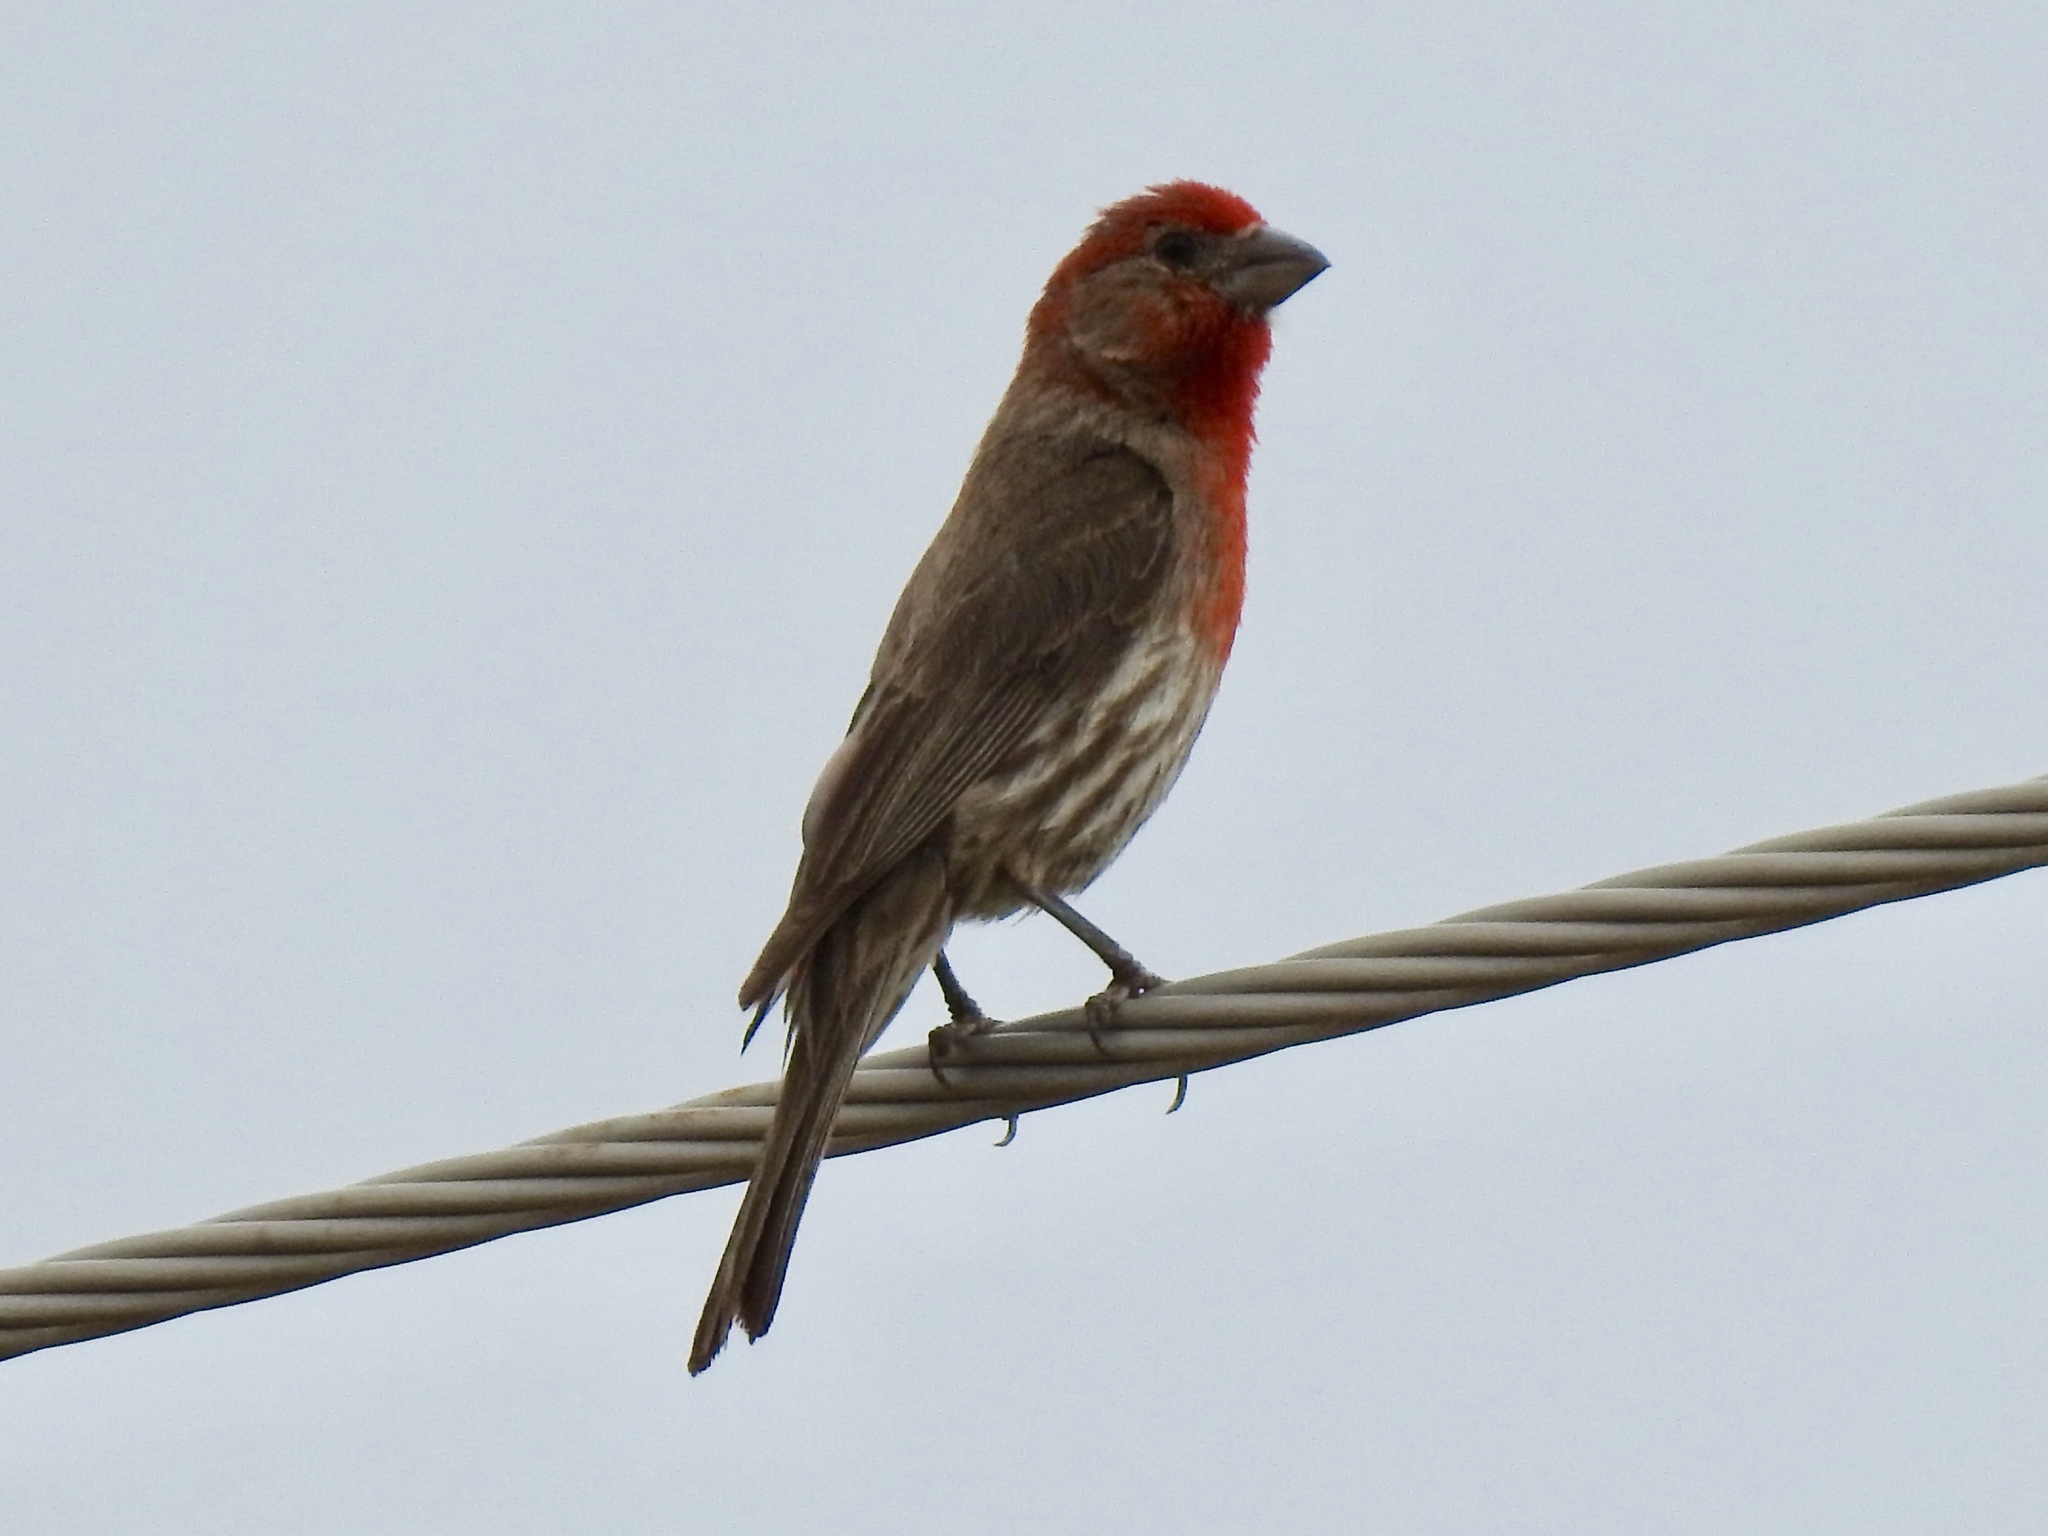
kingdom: Animalia
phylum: Chordata
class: Aves
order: Passeriformes
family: Fringillidae
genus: Haemorhous
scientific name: Haemorhous mexicanus
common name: House finch
